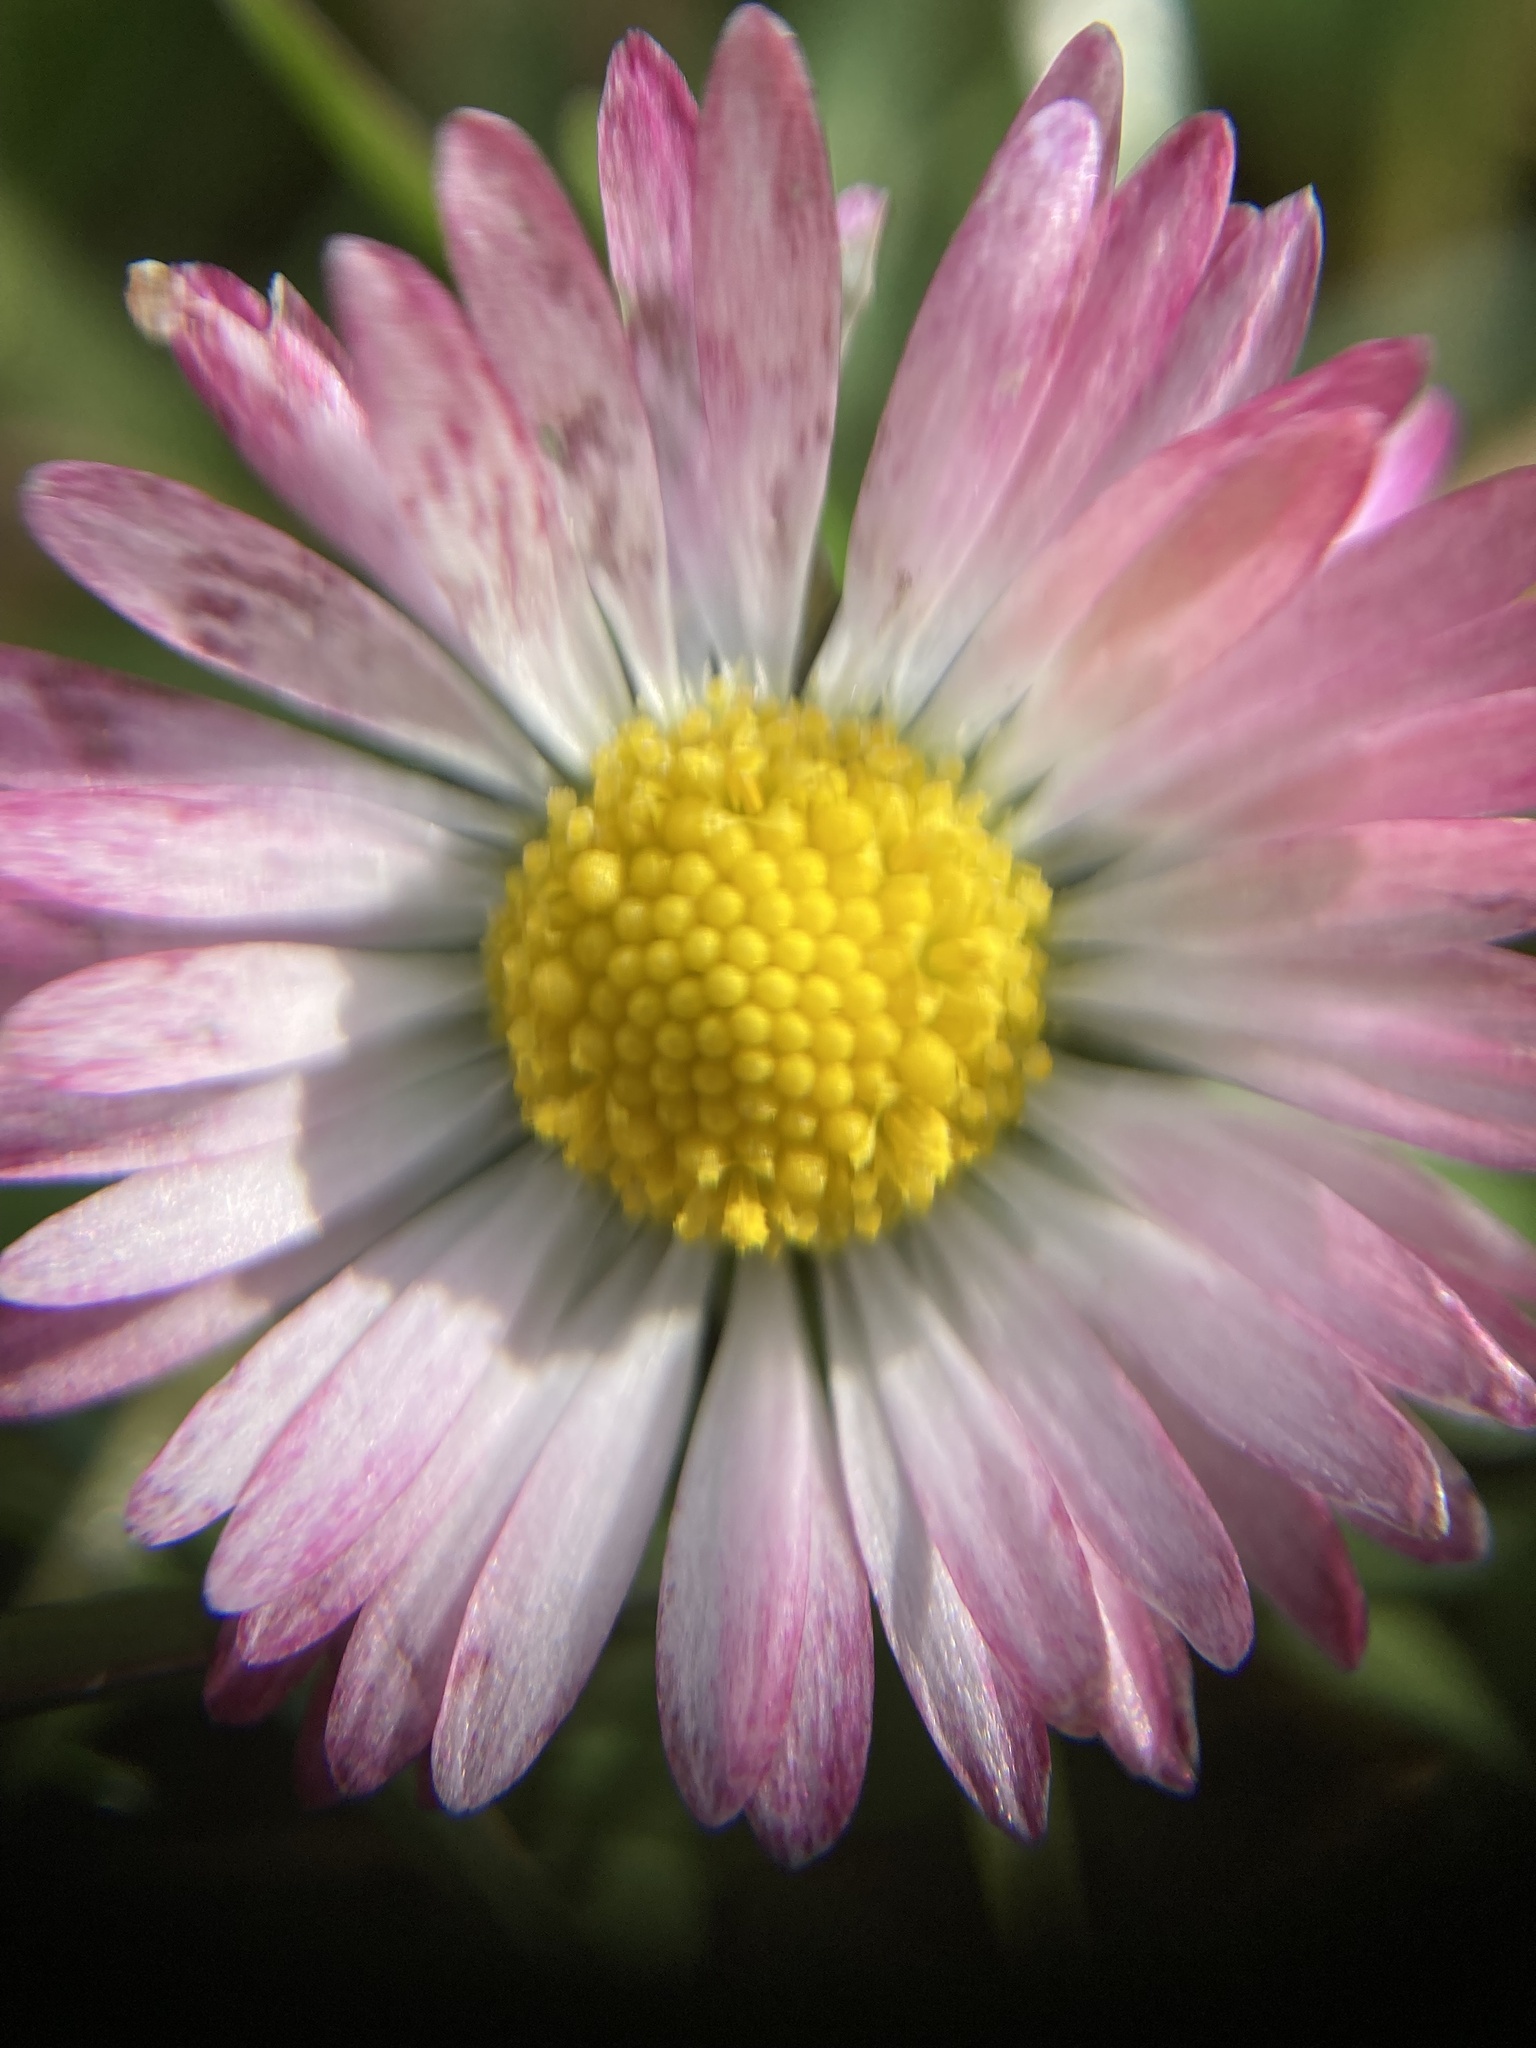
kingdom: Plantae
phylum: Tracheophyta
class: Magnoliopsida
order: Asterales
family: Asteraceae
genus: Bellis
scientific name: Bellis perennis
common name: Lawndaisy
